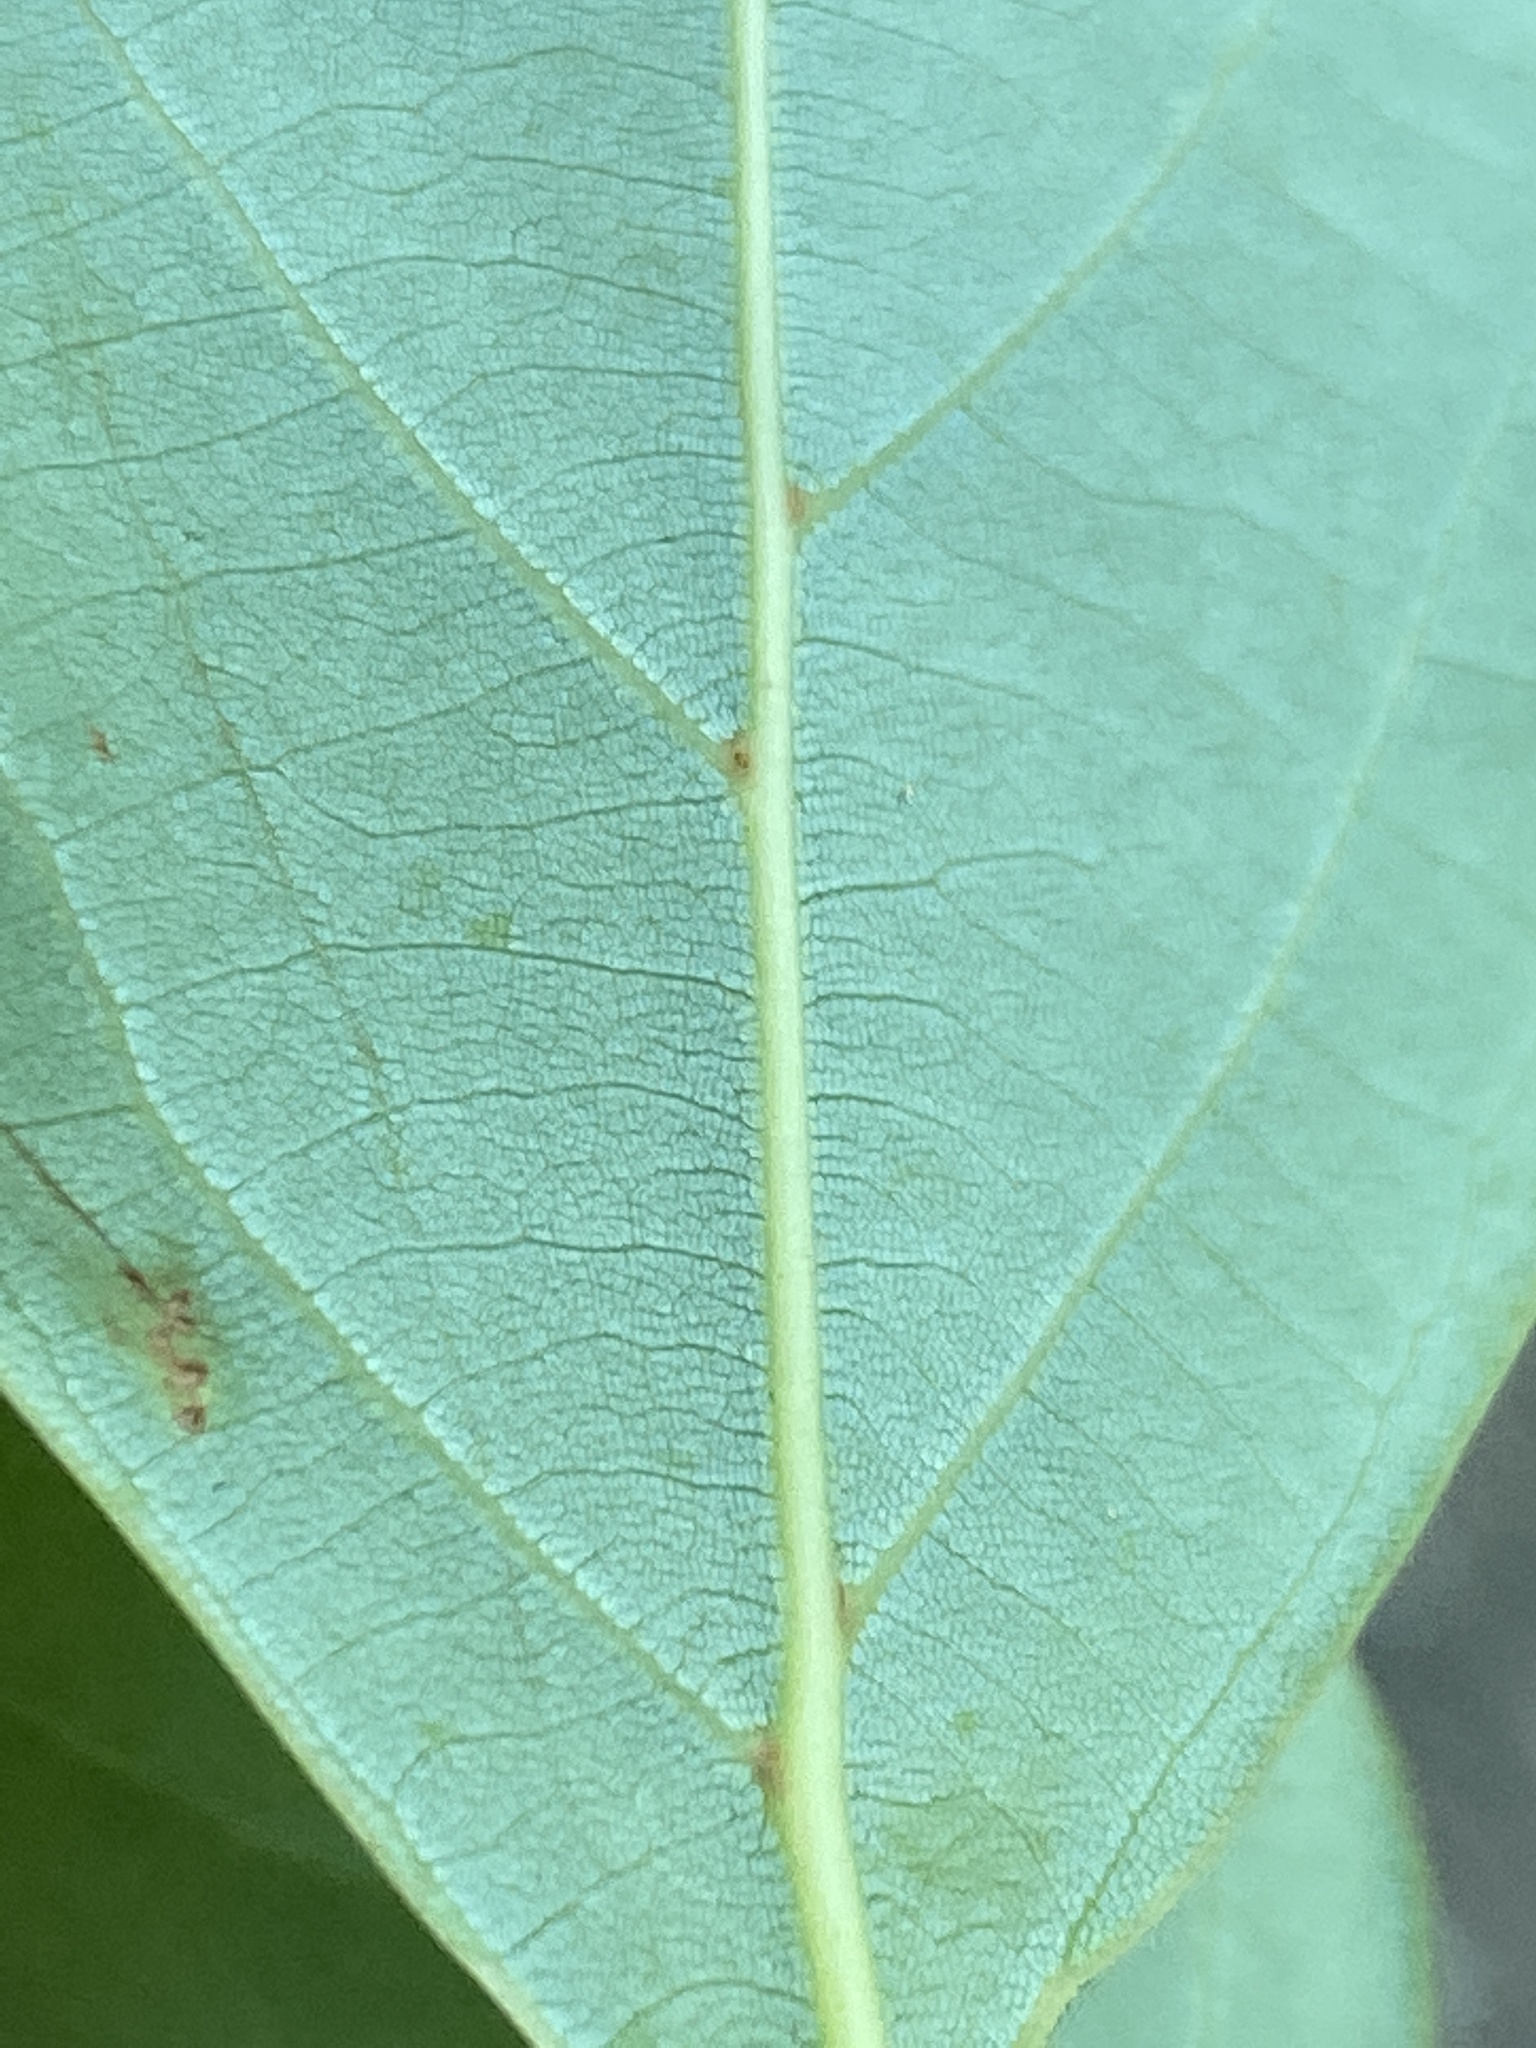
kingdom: Plantae
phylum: Tracheophyta
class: Magnoliopsida
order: Laurales
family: Lauraceae
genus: Cinnamomum
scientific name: Cinnamomum camphora
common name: Camphortree
